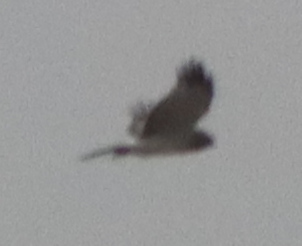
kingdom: Animalia
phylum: Chordata
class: Aves
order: Accipitriformes
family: Accipitridae
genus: Circus
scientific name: Circus cyaneus
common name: Hen harrier
